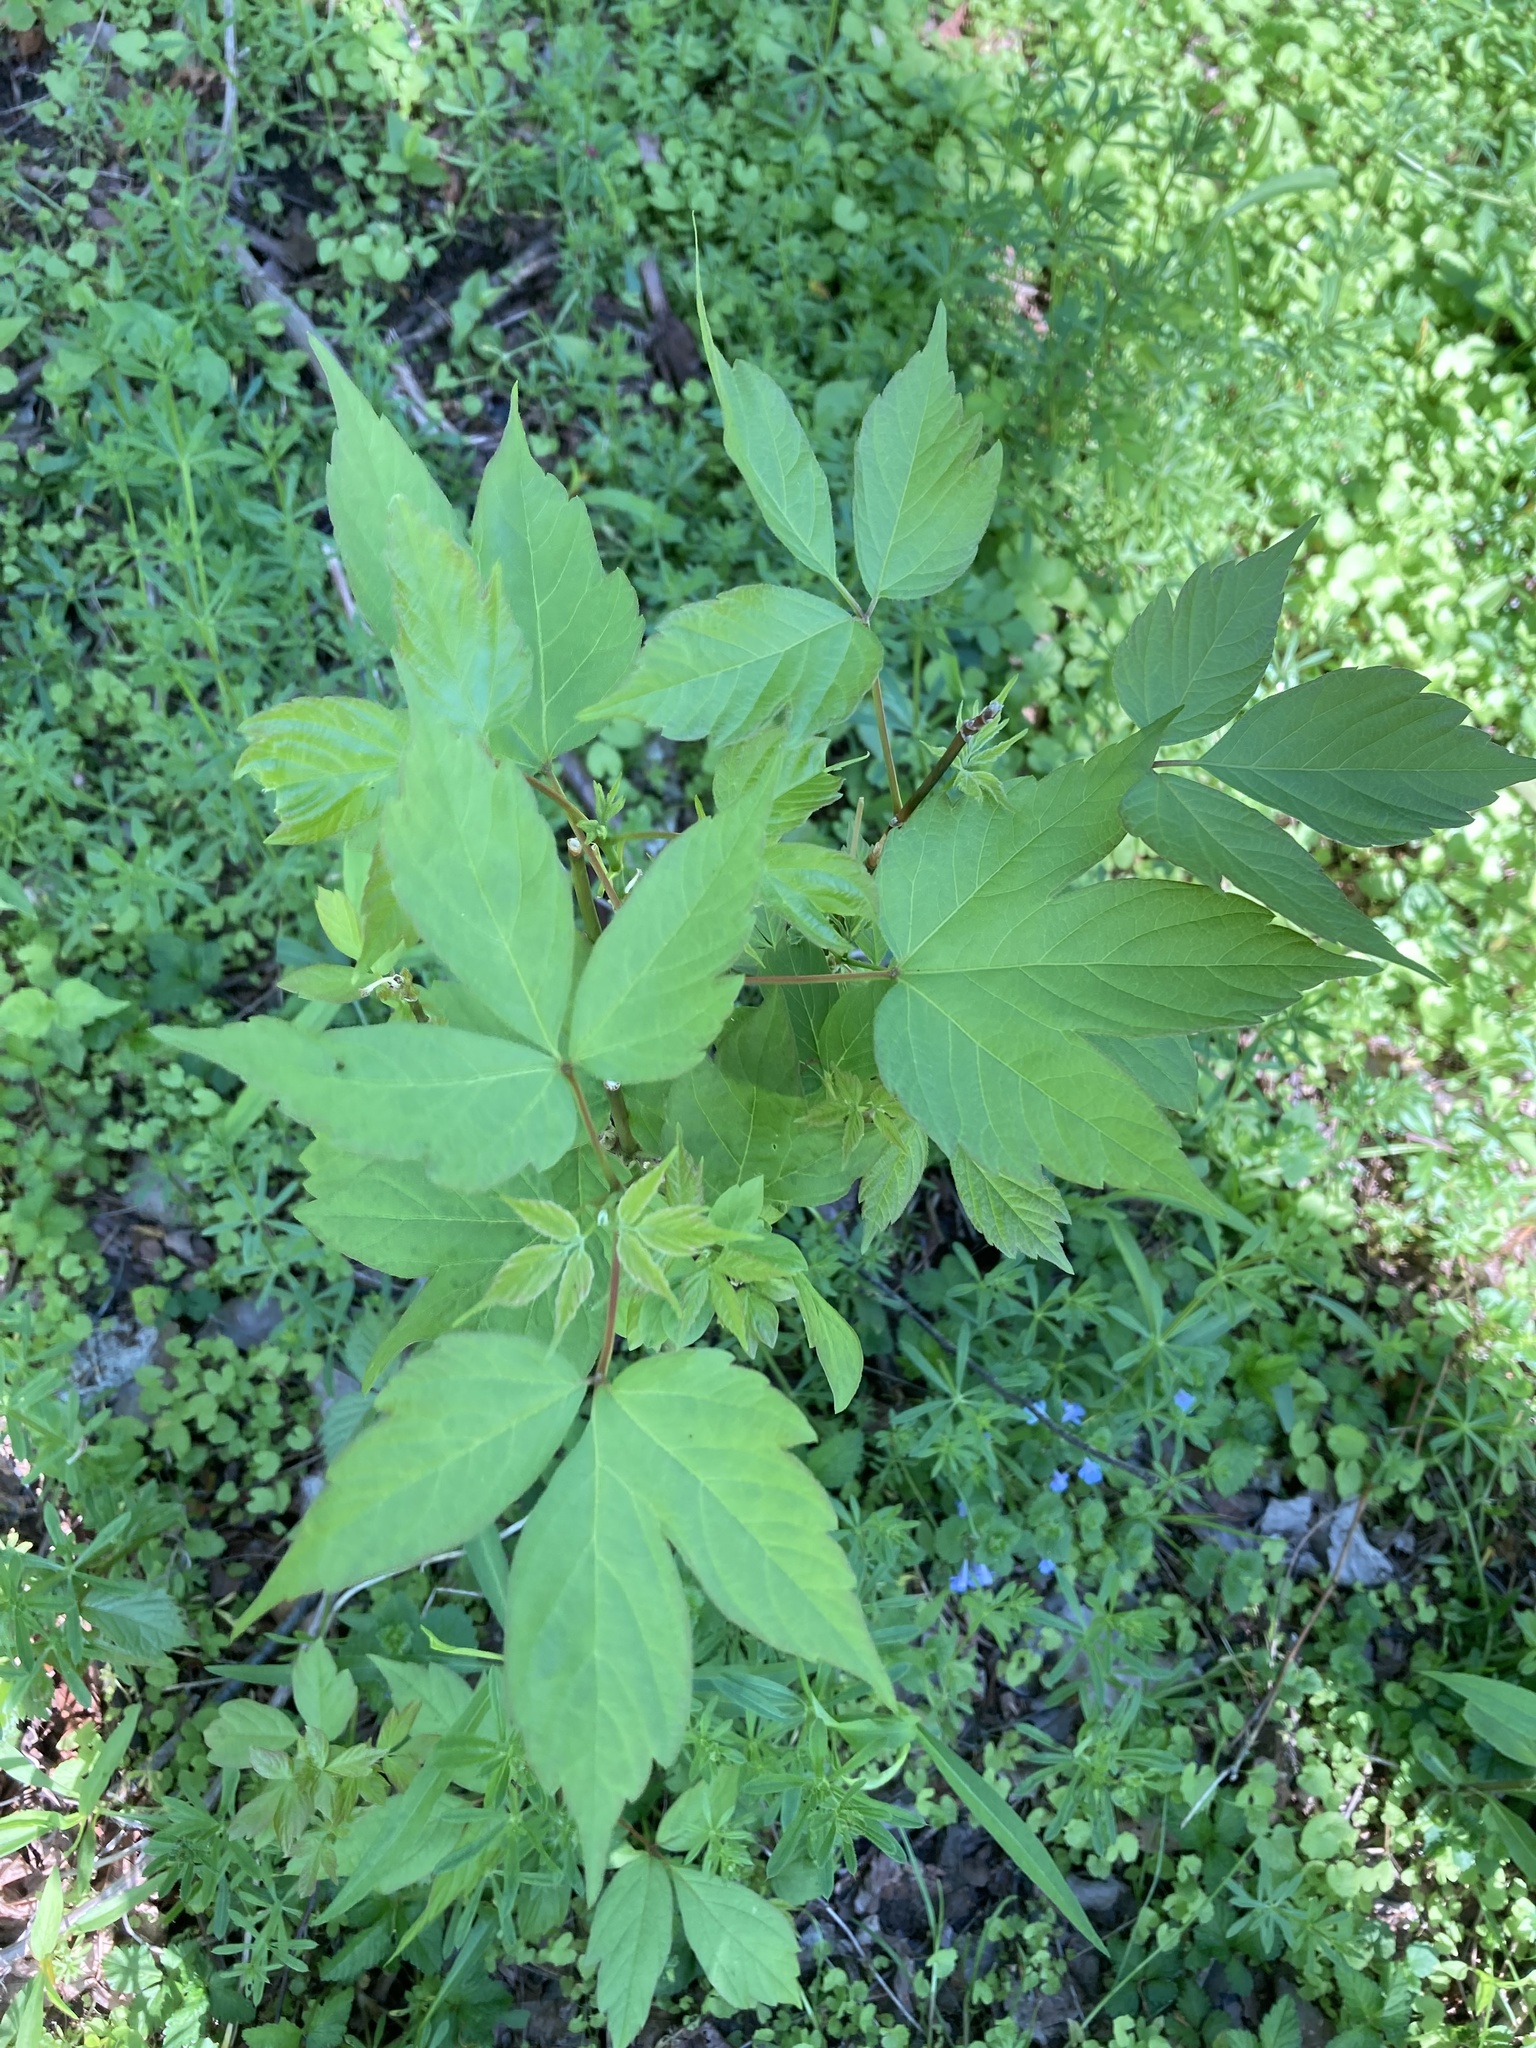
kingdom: Plantae
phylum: Tracheophyta
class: Magnoliopsida
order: Sapindales
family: Sapindaceae
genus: Acer
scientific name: Acer negundo
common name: Ashleaf maple
